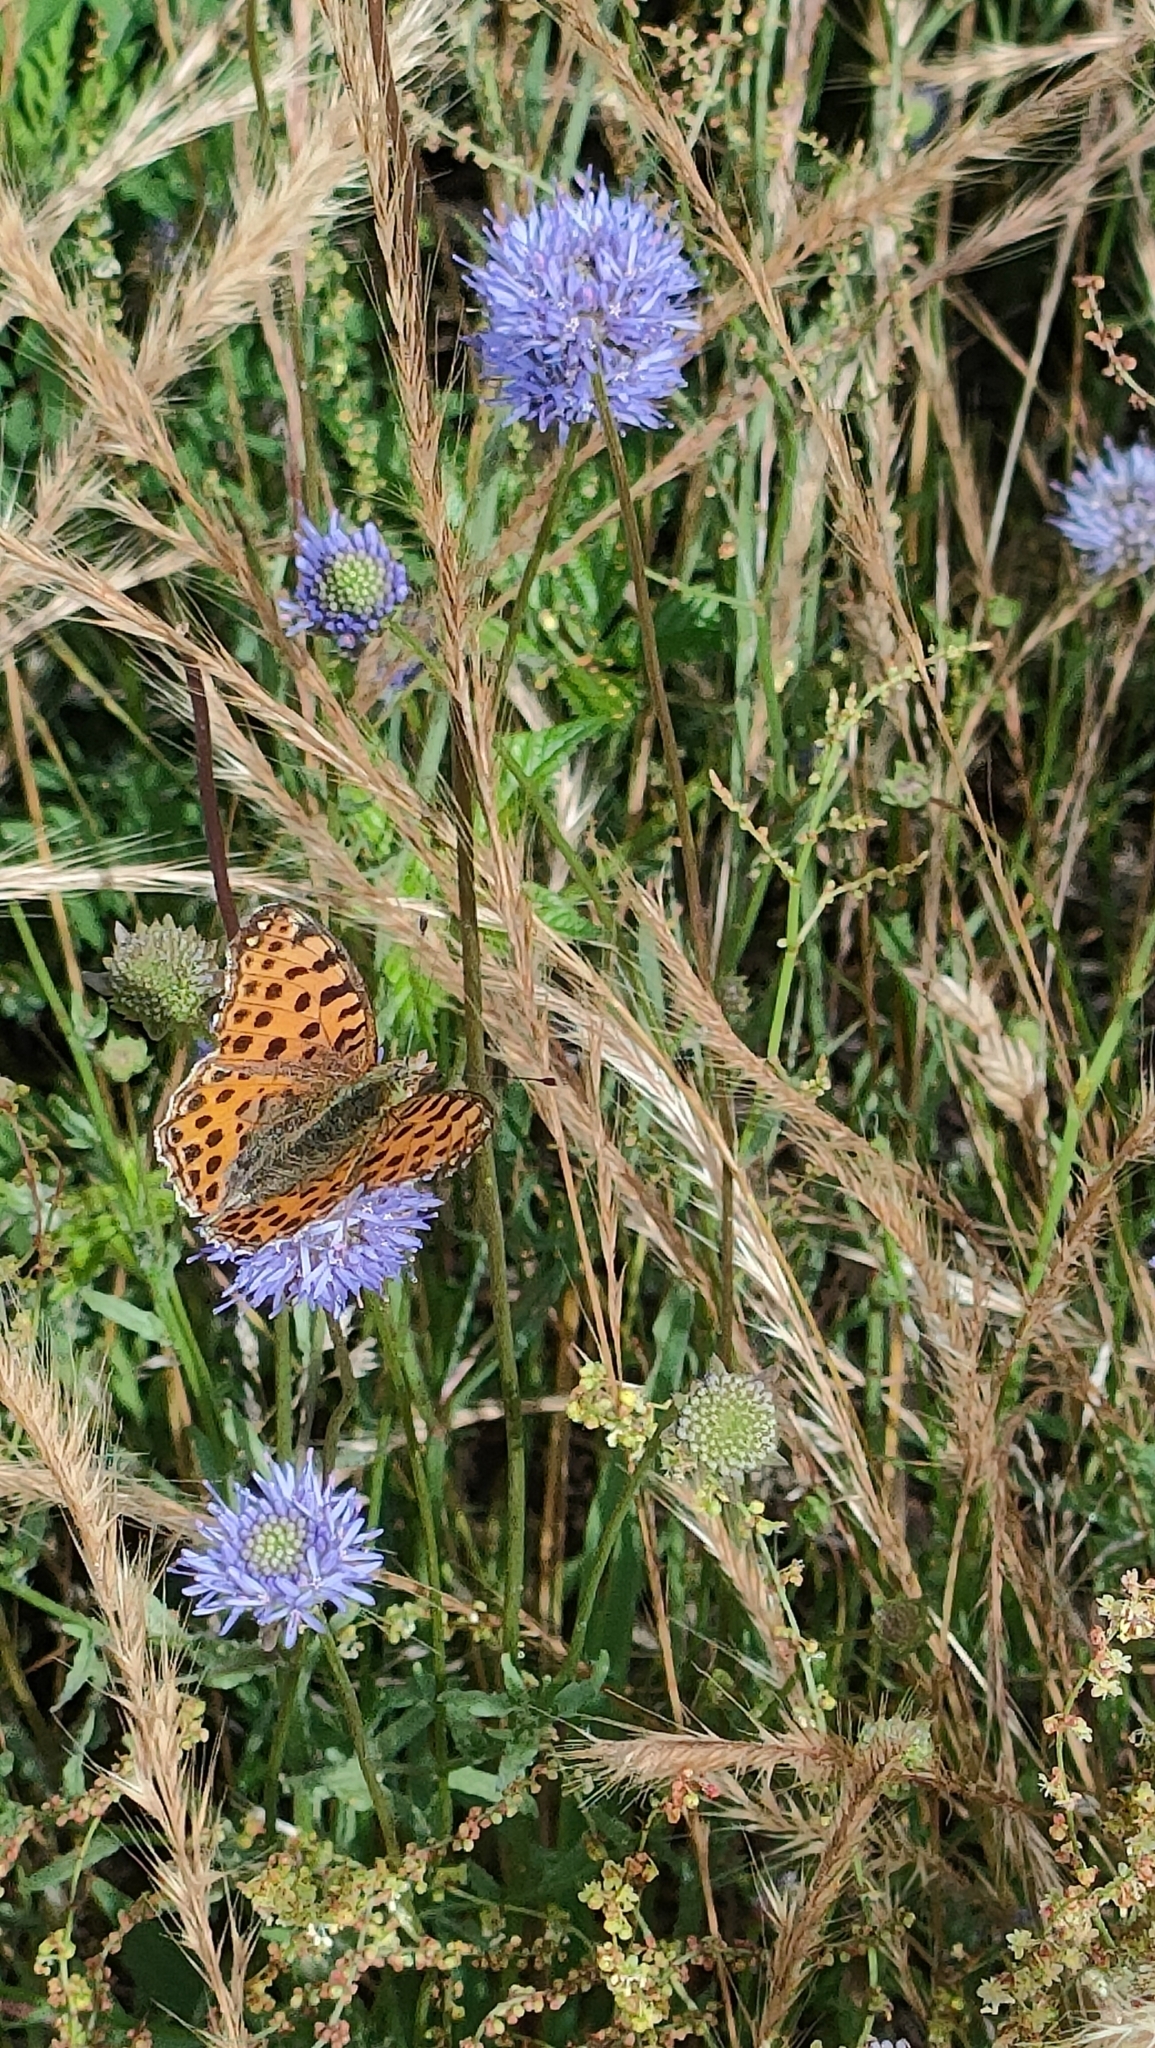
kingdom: Animalia
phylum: Arthropoda
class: Insecta
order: Lepidoptera
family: Nymphalidae
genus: Issoria
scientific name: Issoria lathonia
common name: Queen of spain fritillary
